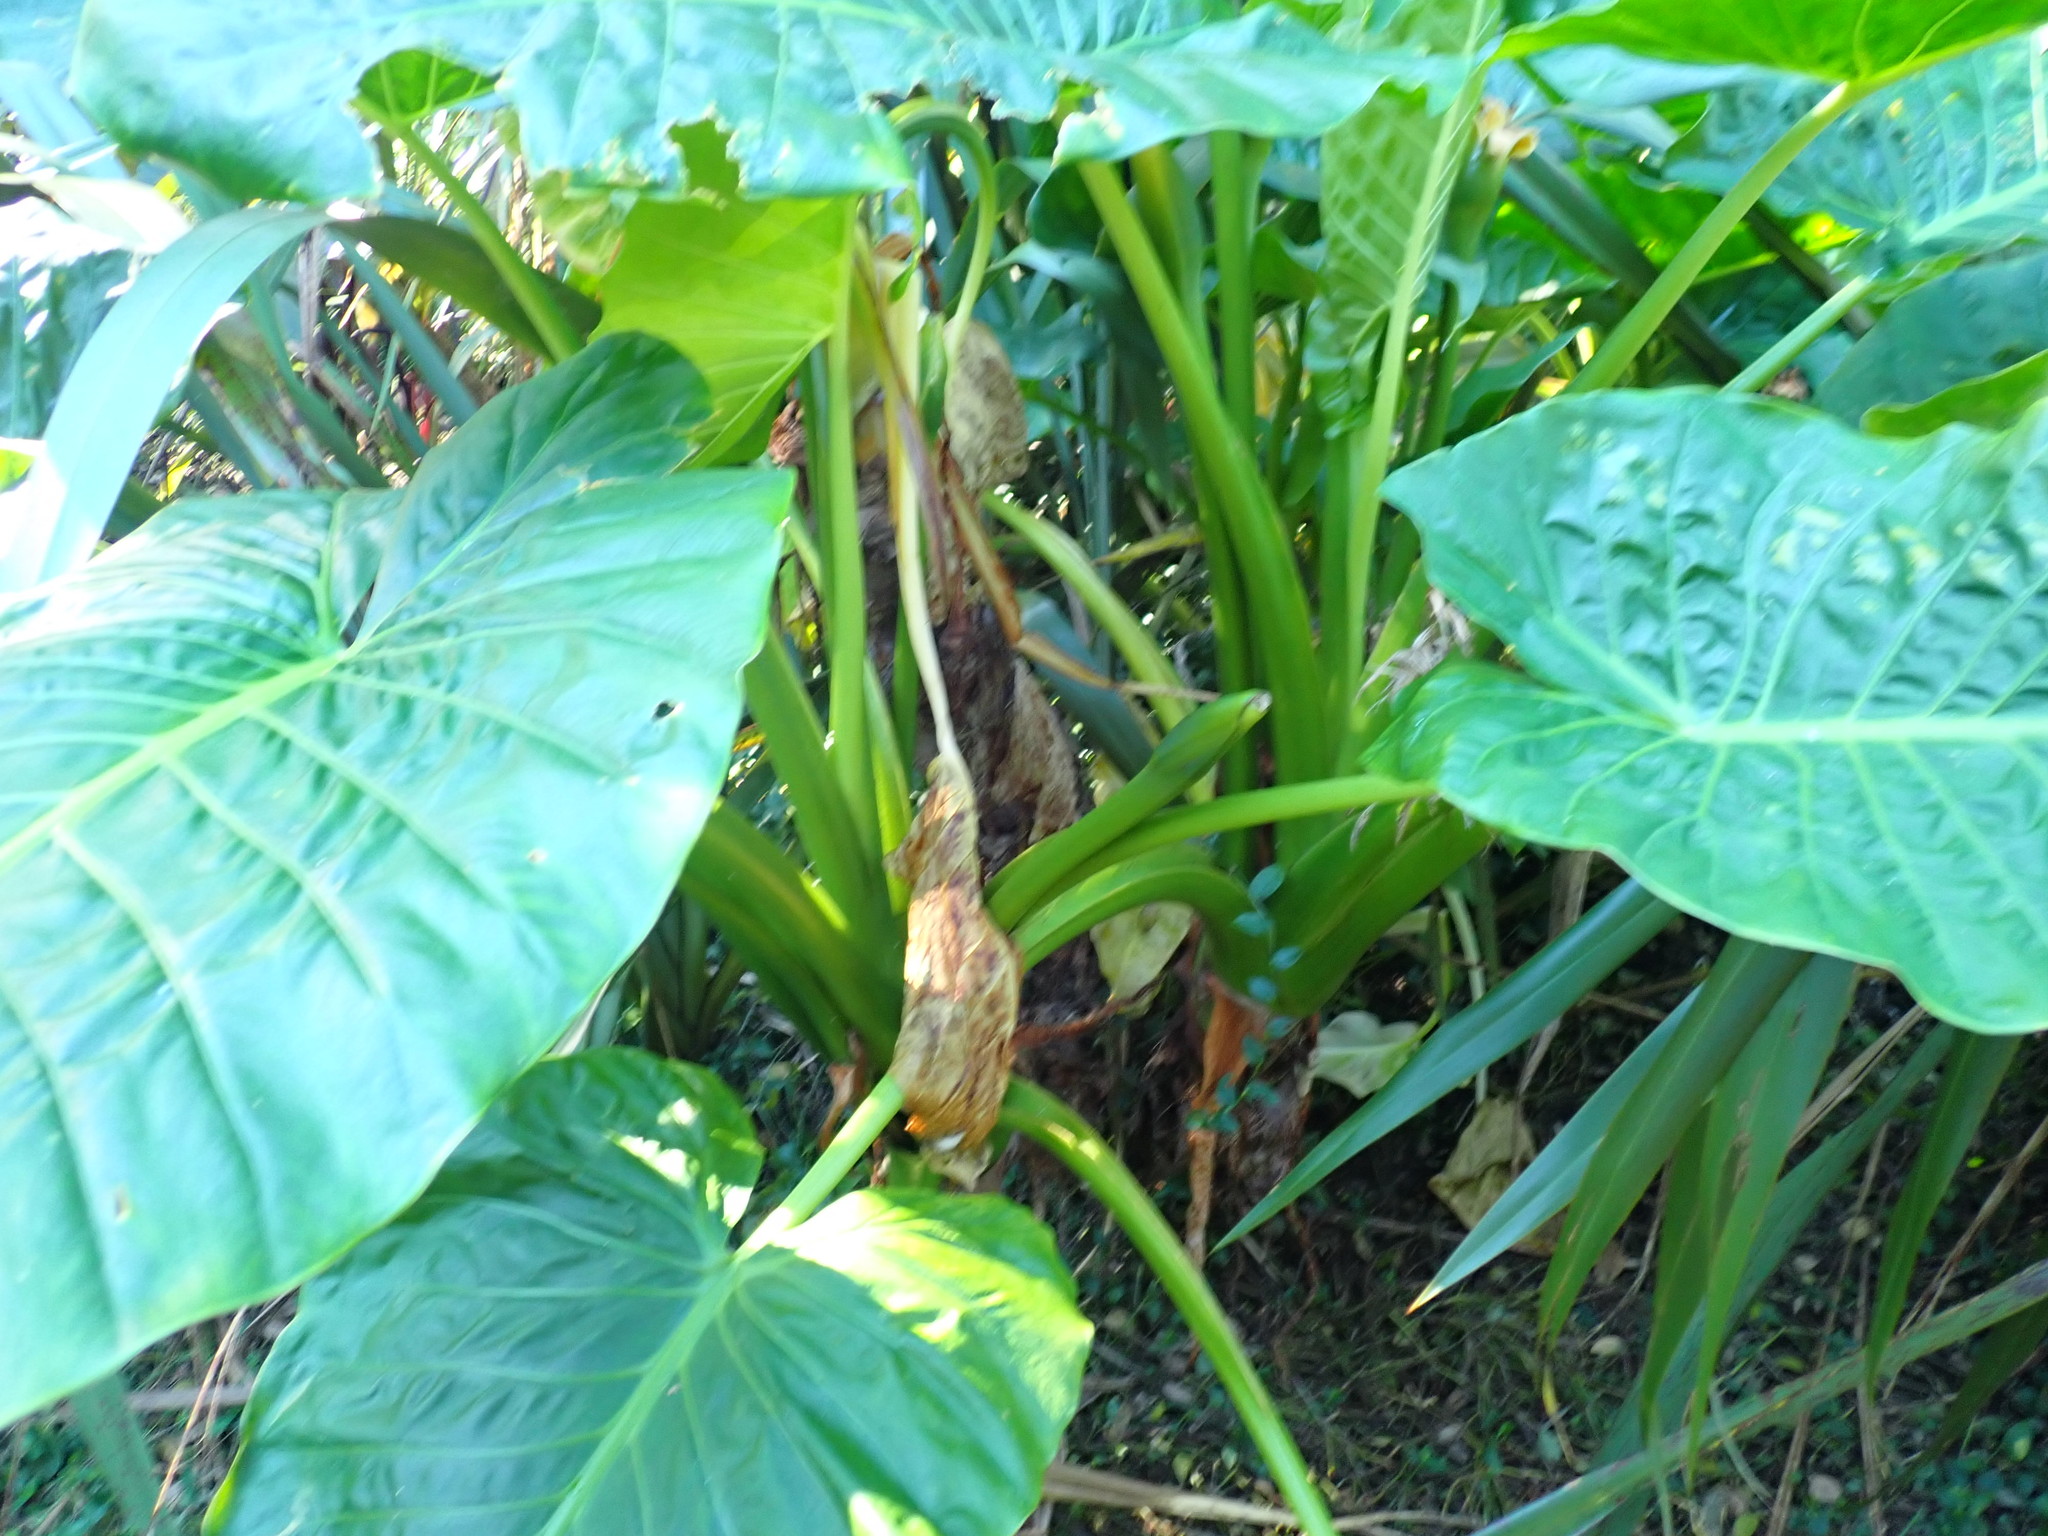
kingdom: Plantae
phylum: Tracheophyta
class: Liliopsida
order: Alismatales
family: Araceae
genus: Alocasia
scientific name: Alocasia brisbanensis
